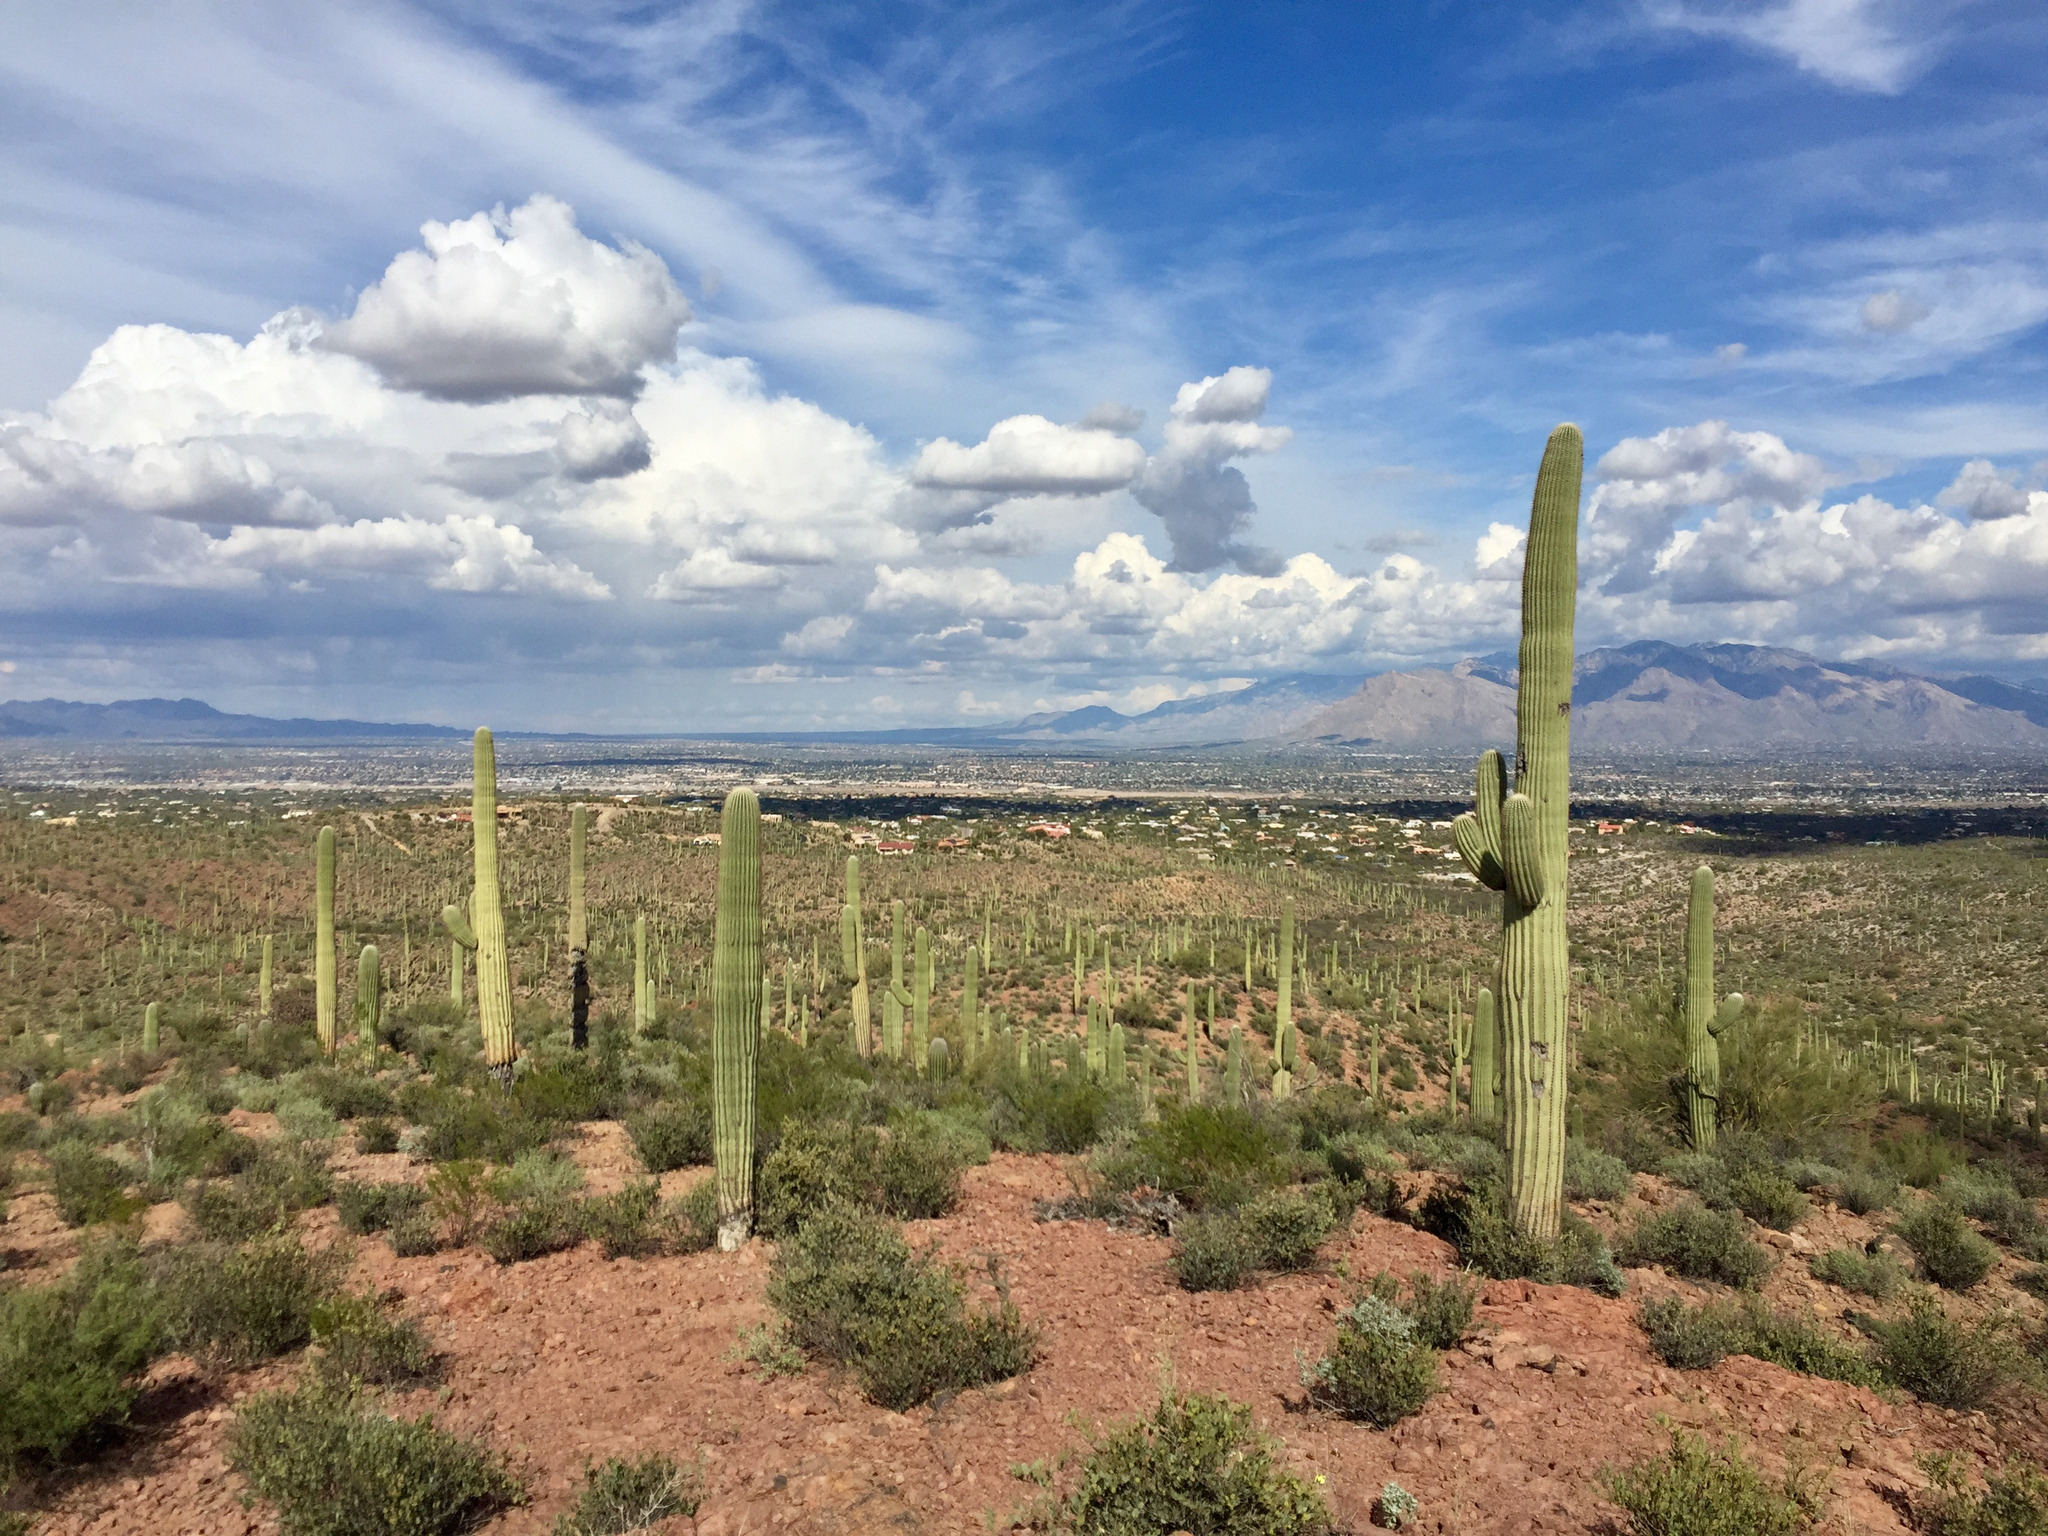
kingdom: Plantae
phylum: Tracheophyta
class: Magnoliopsida
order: Caryophyllales
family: Cactaceae
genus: Carnegiea
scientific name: Carnegiea gigantea
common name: Saguaro
